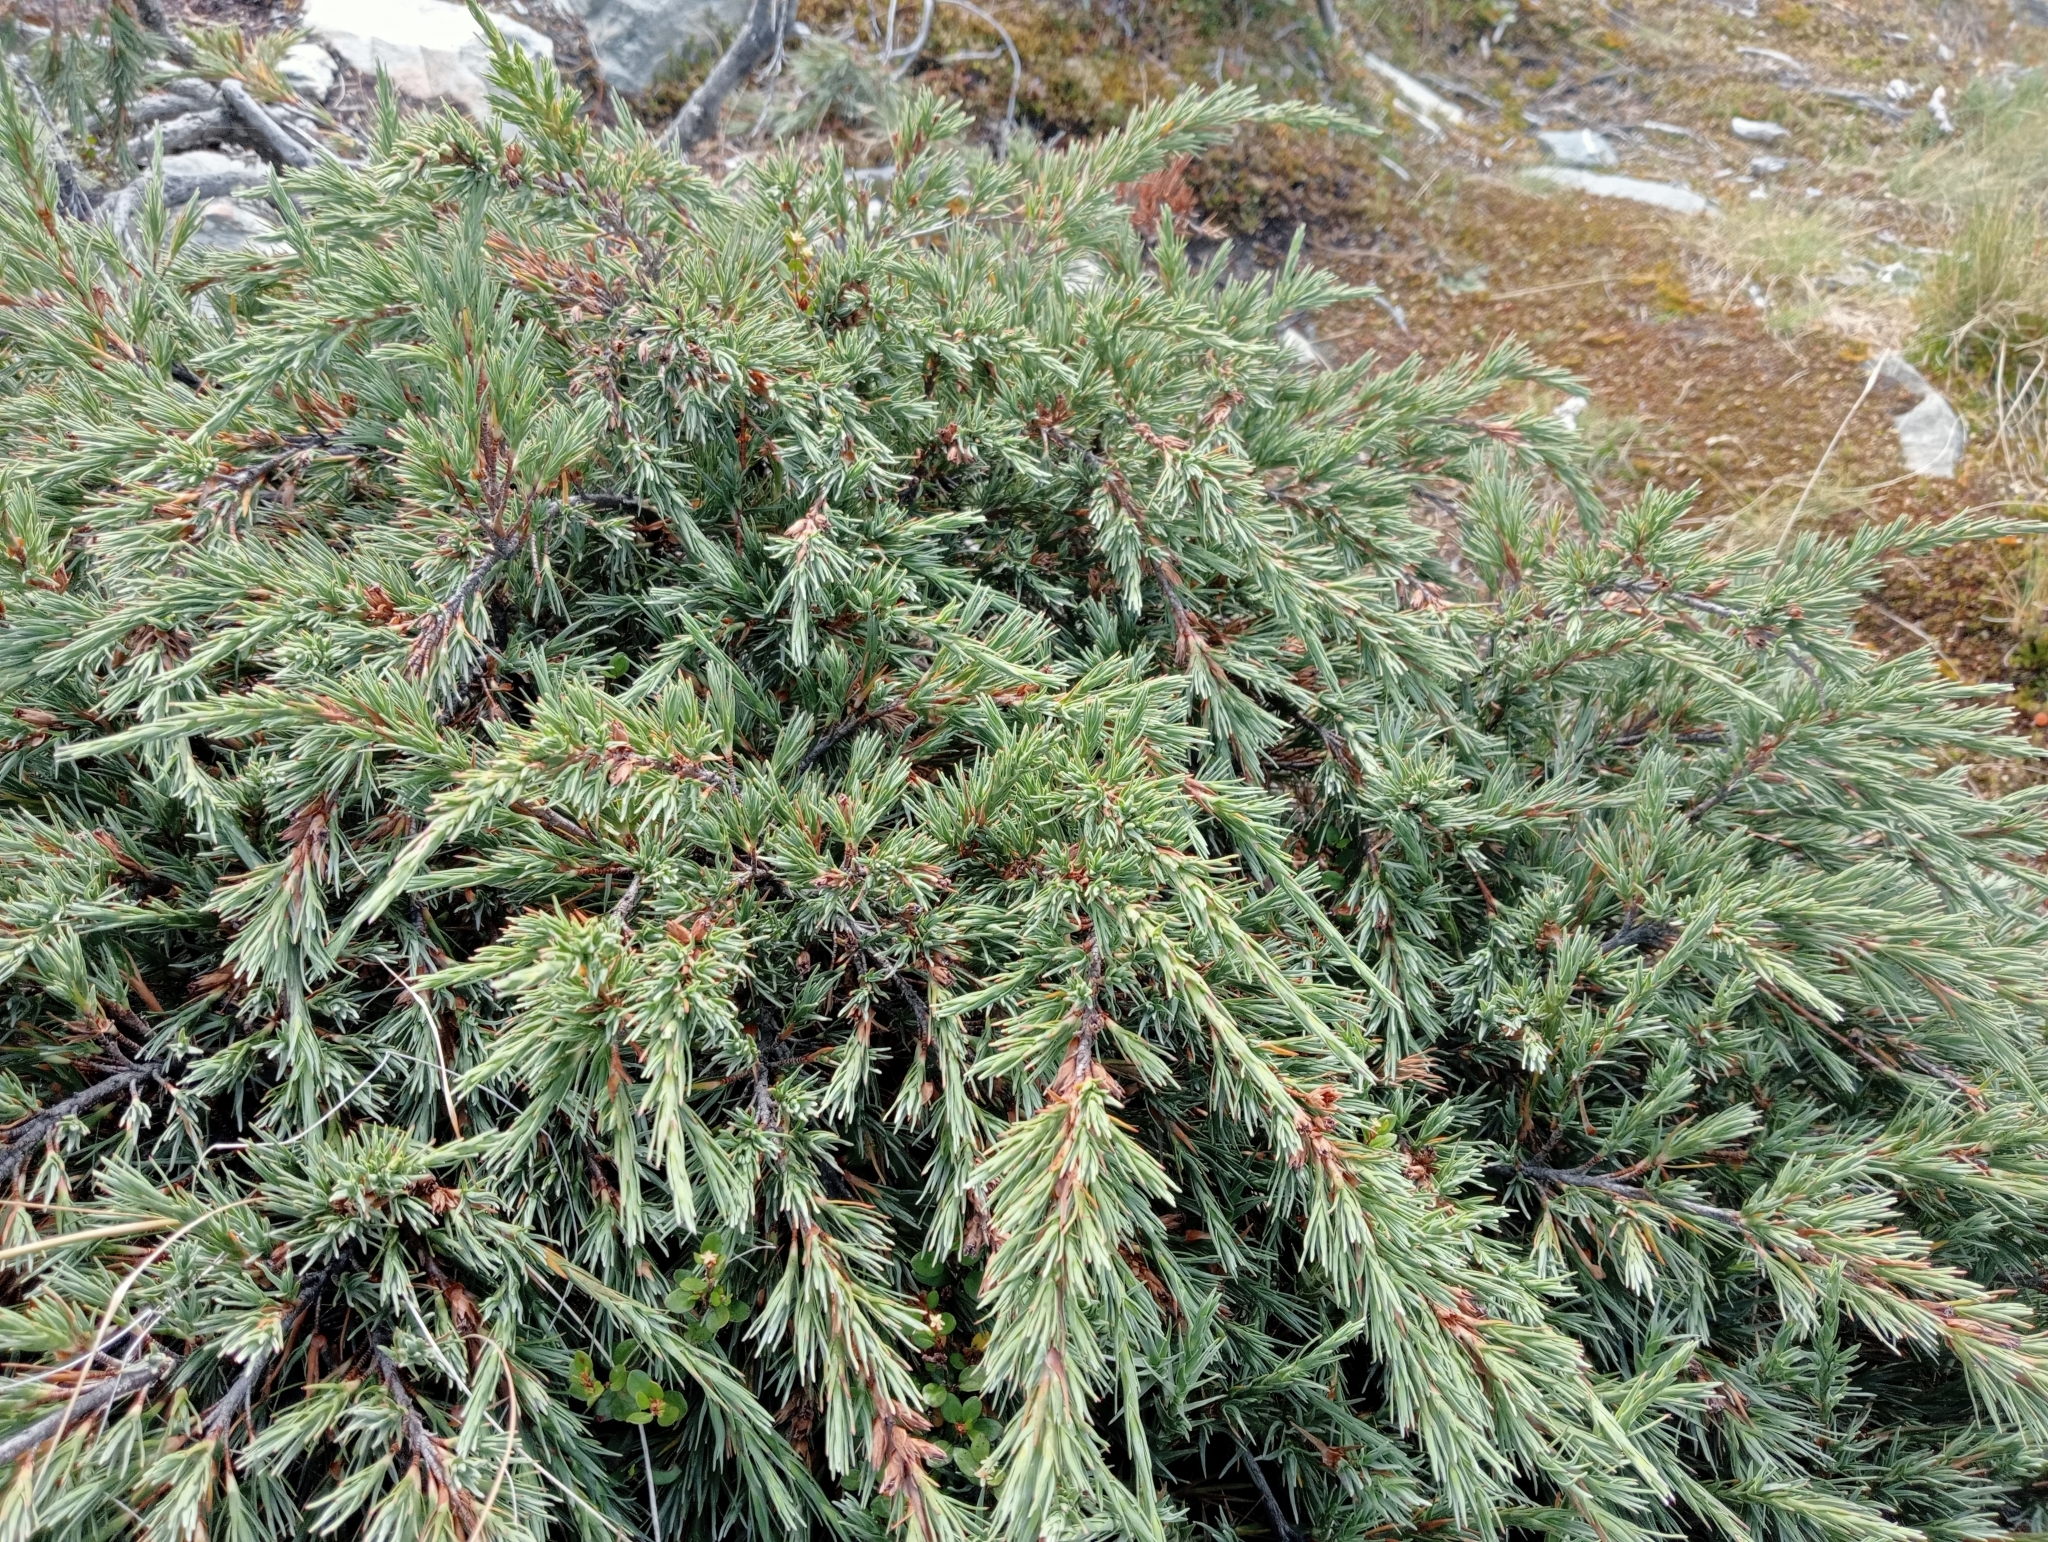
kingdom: Plantae
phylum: Tracheophyta
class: Magnoliopsida
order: Ericales
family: Ericaceae
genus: Dracophyllum
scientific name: Dracophyllum kirkii
